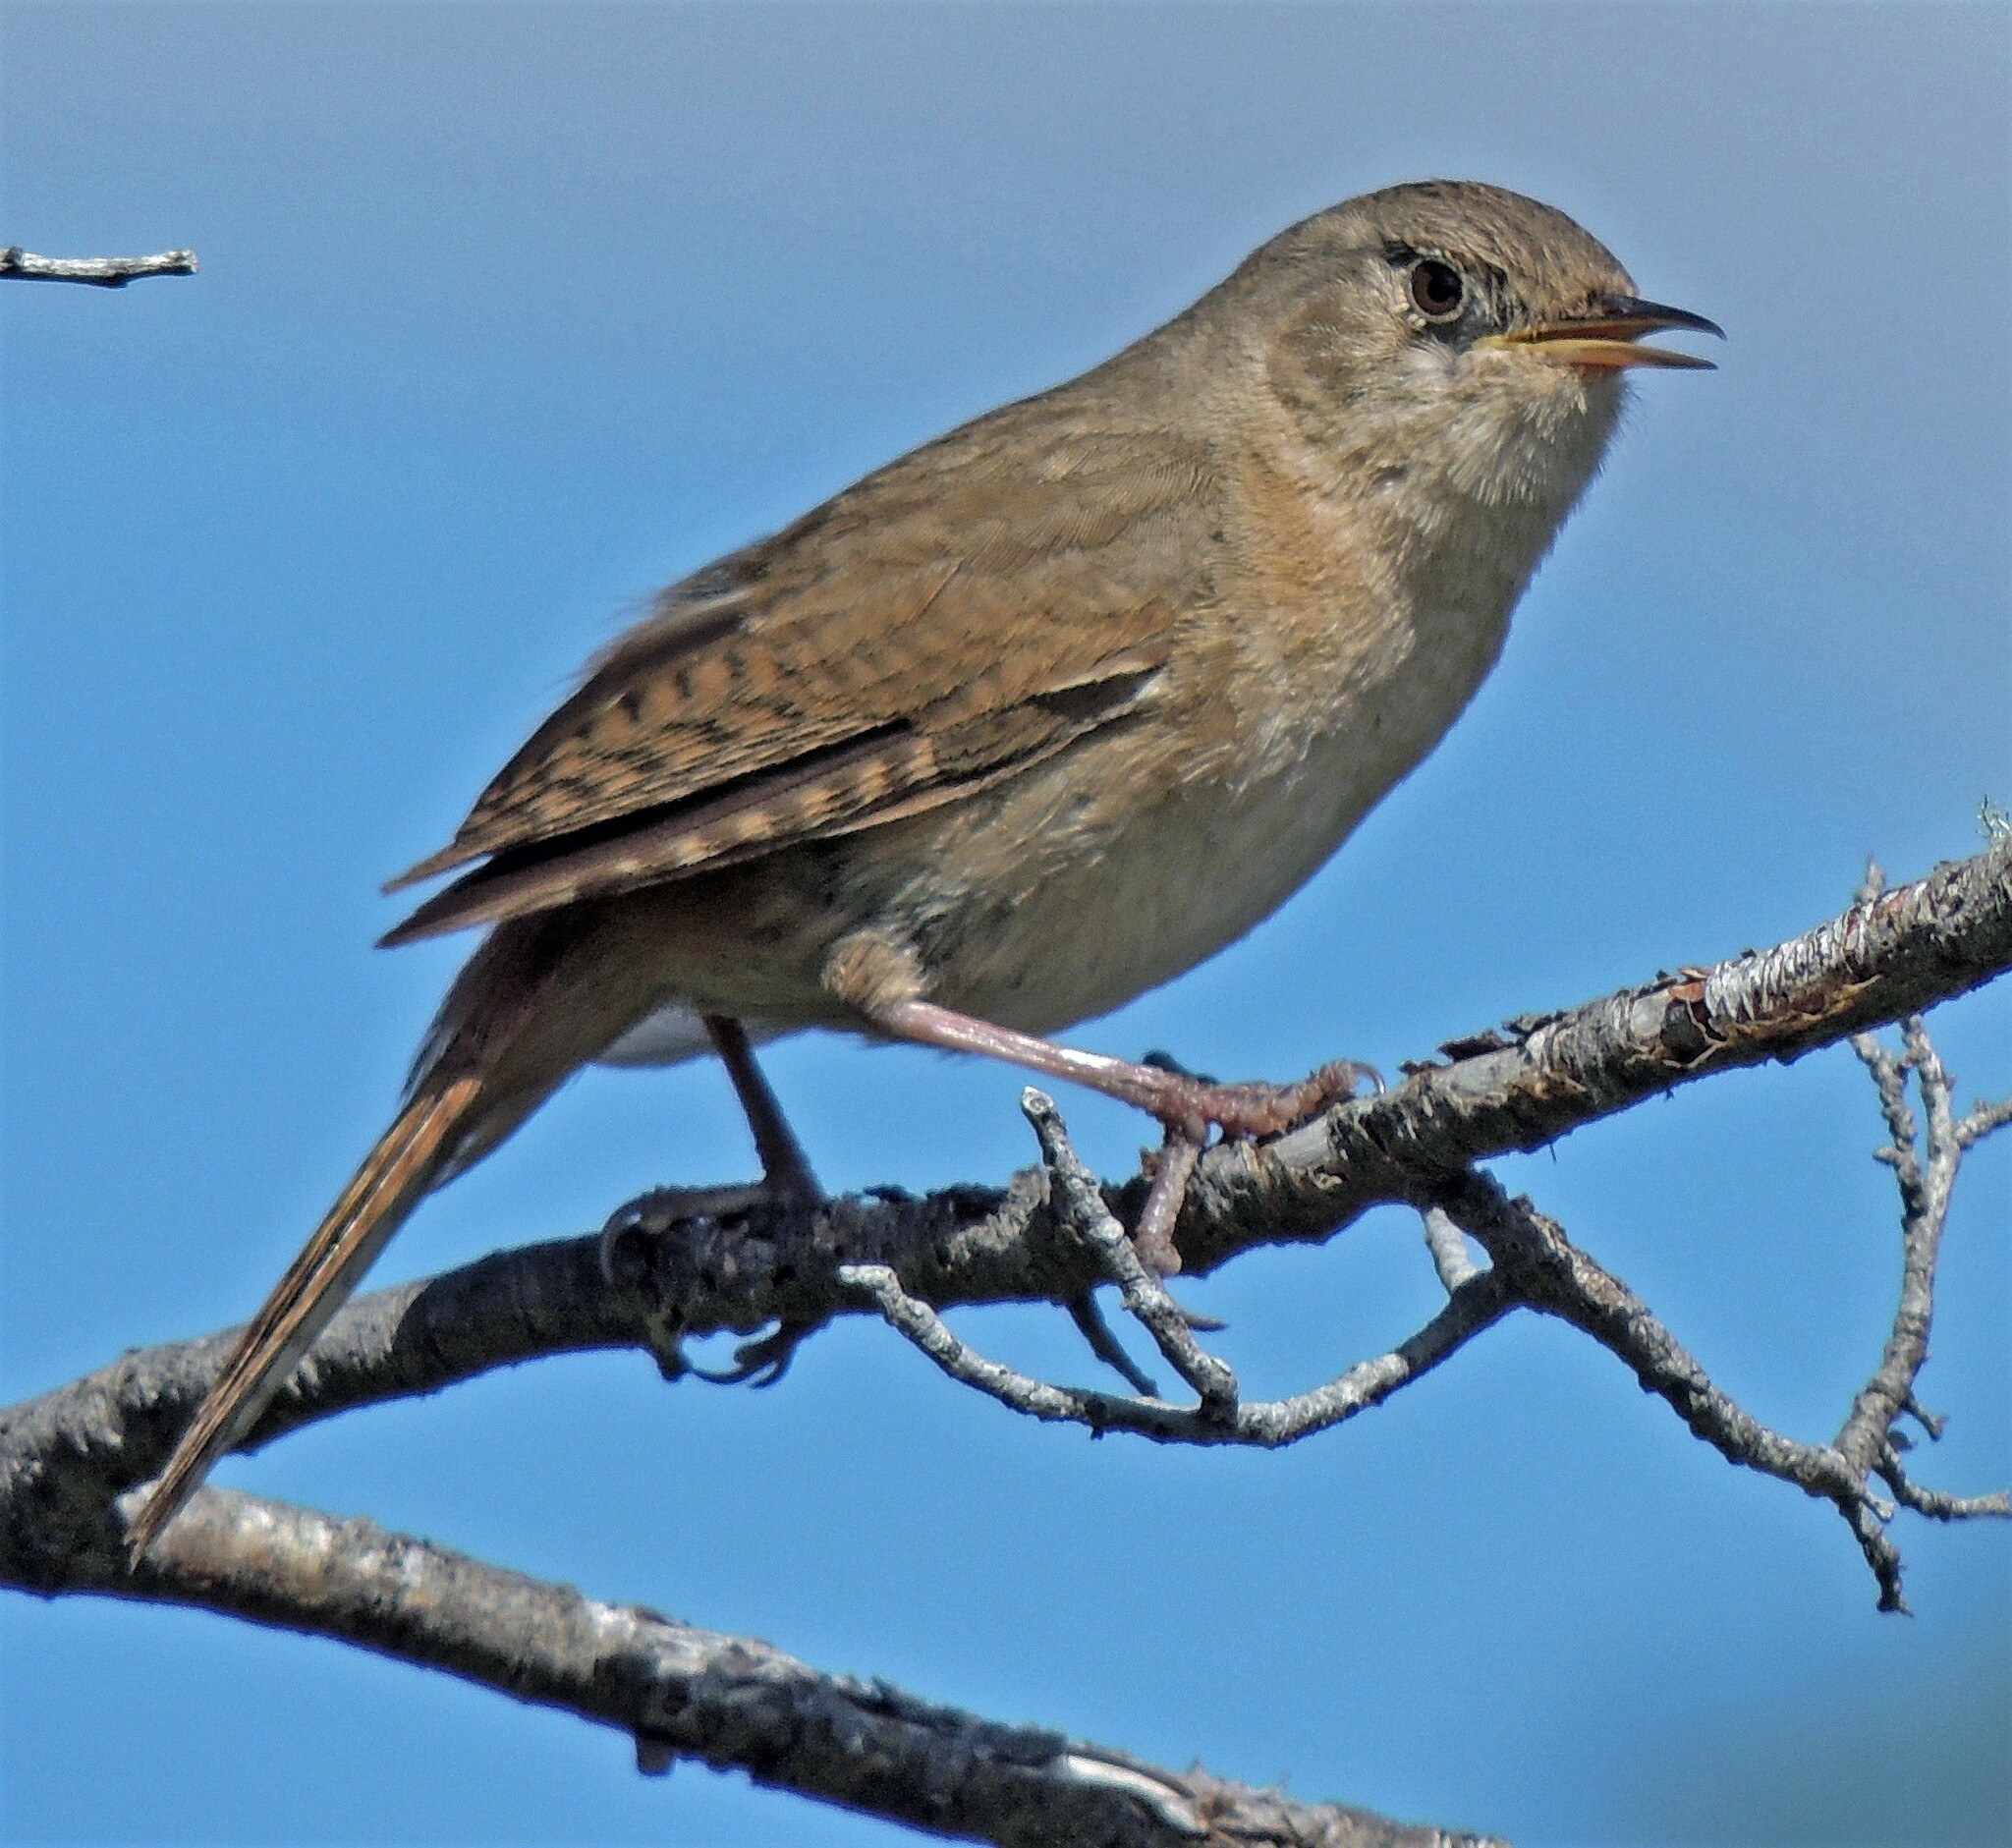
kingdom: Animalia
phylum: Chordata
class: Aves
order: Passeriformes
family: Troglodytidae
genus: Troglodytes
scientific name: Troglodytes aedon
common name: House wren
